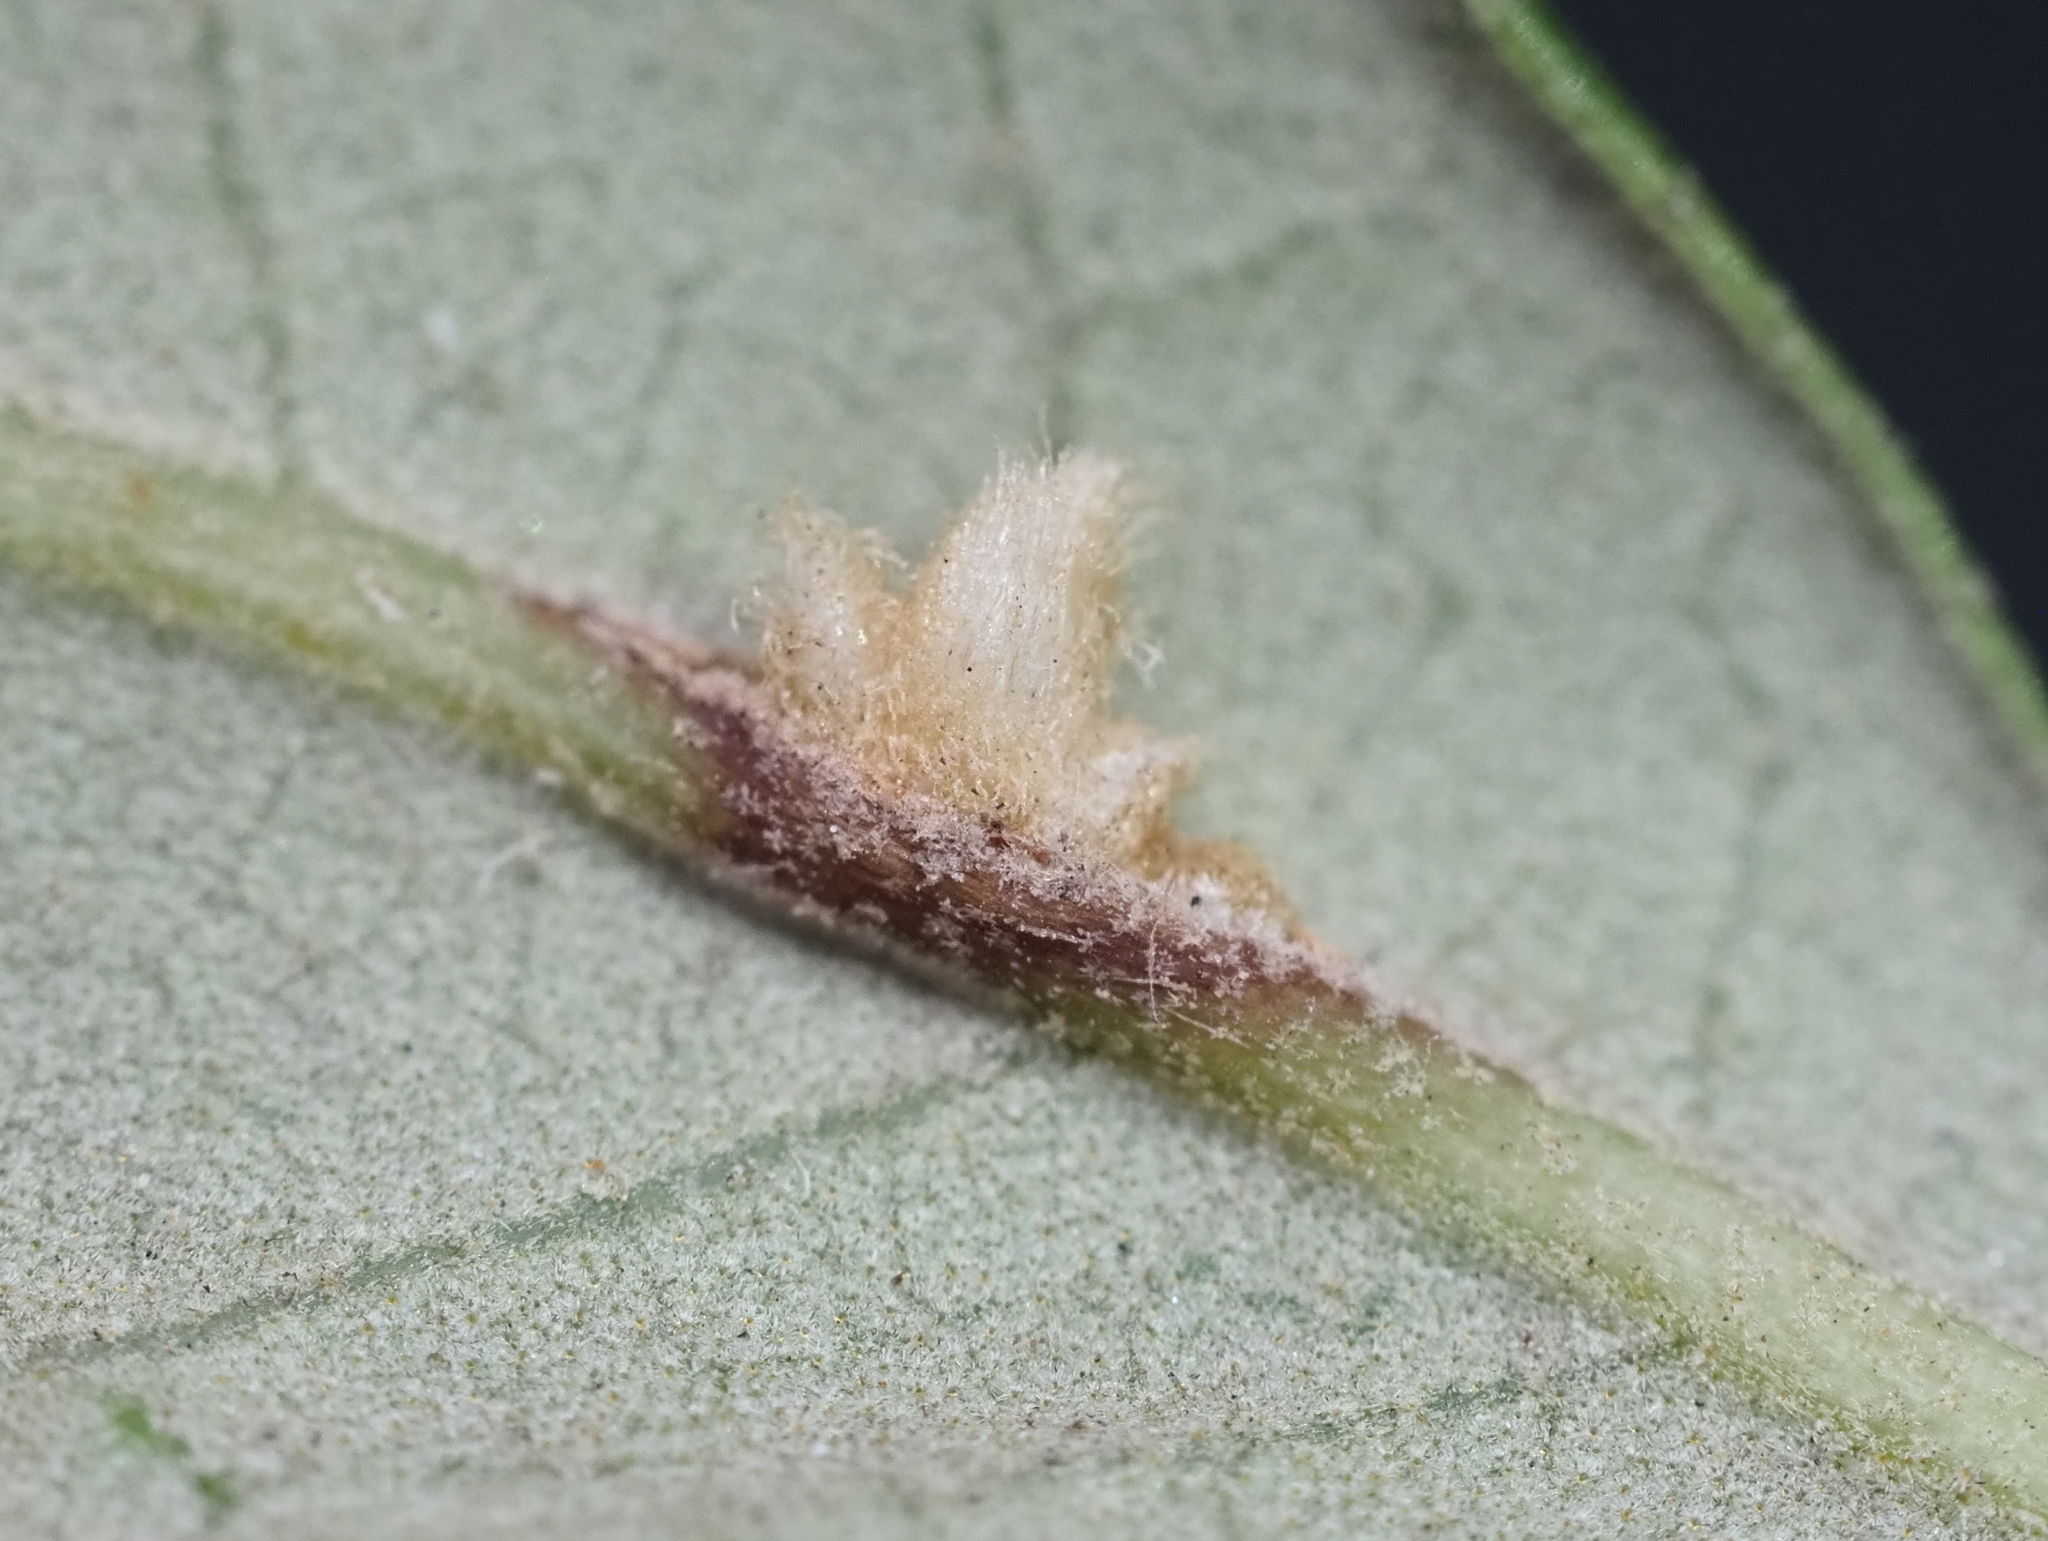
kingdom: Animalia
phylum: Arthropoda
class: Insecta
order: Hymenoptera
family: Cynipidae
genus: Andricus
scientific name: Andricus Druon quercuslanigerum
